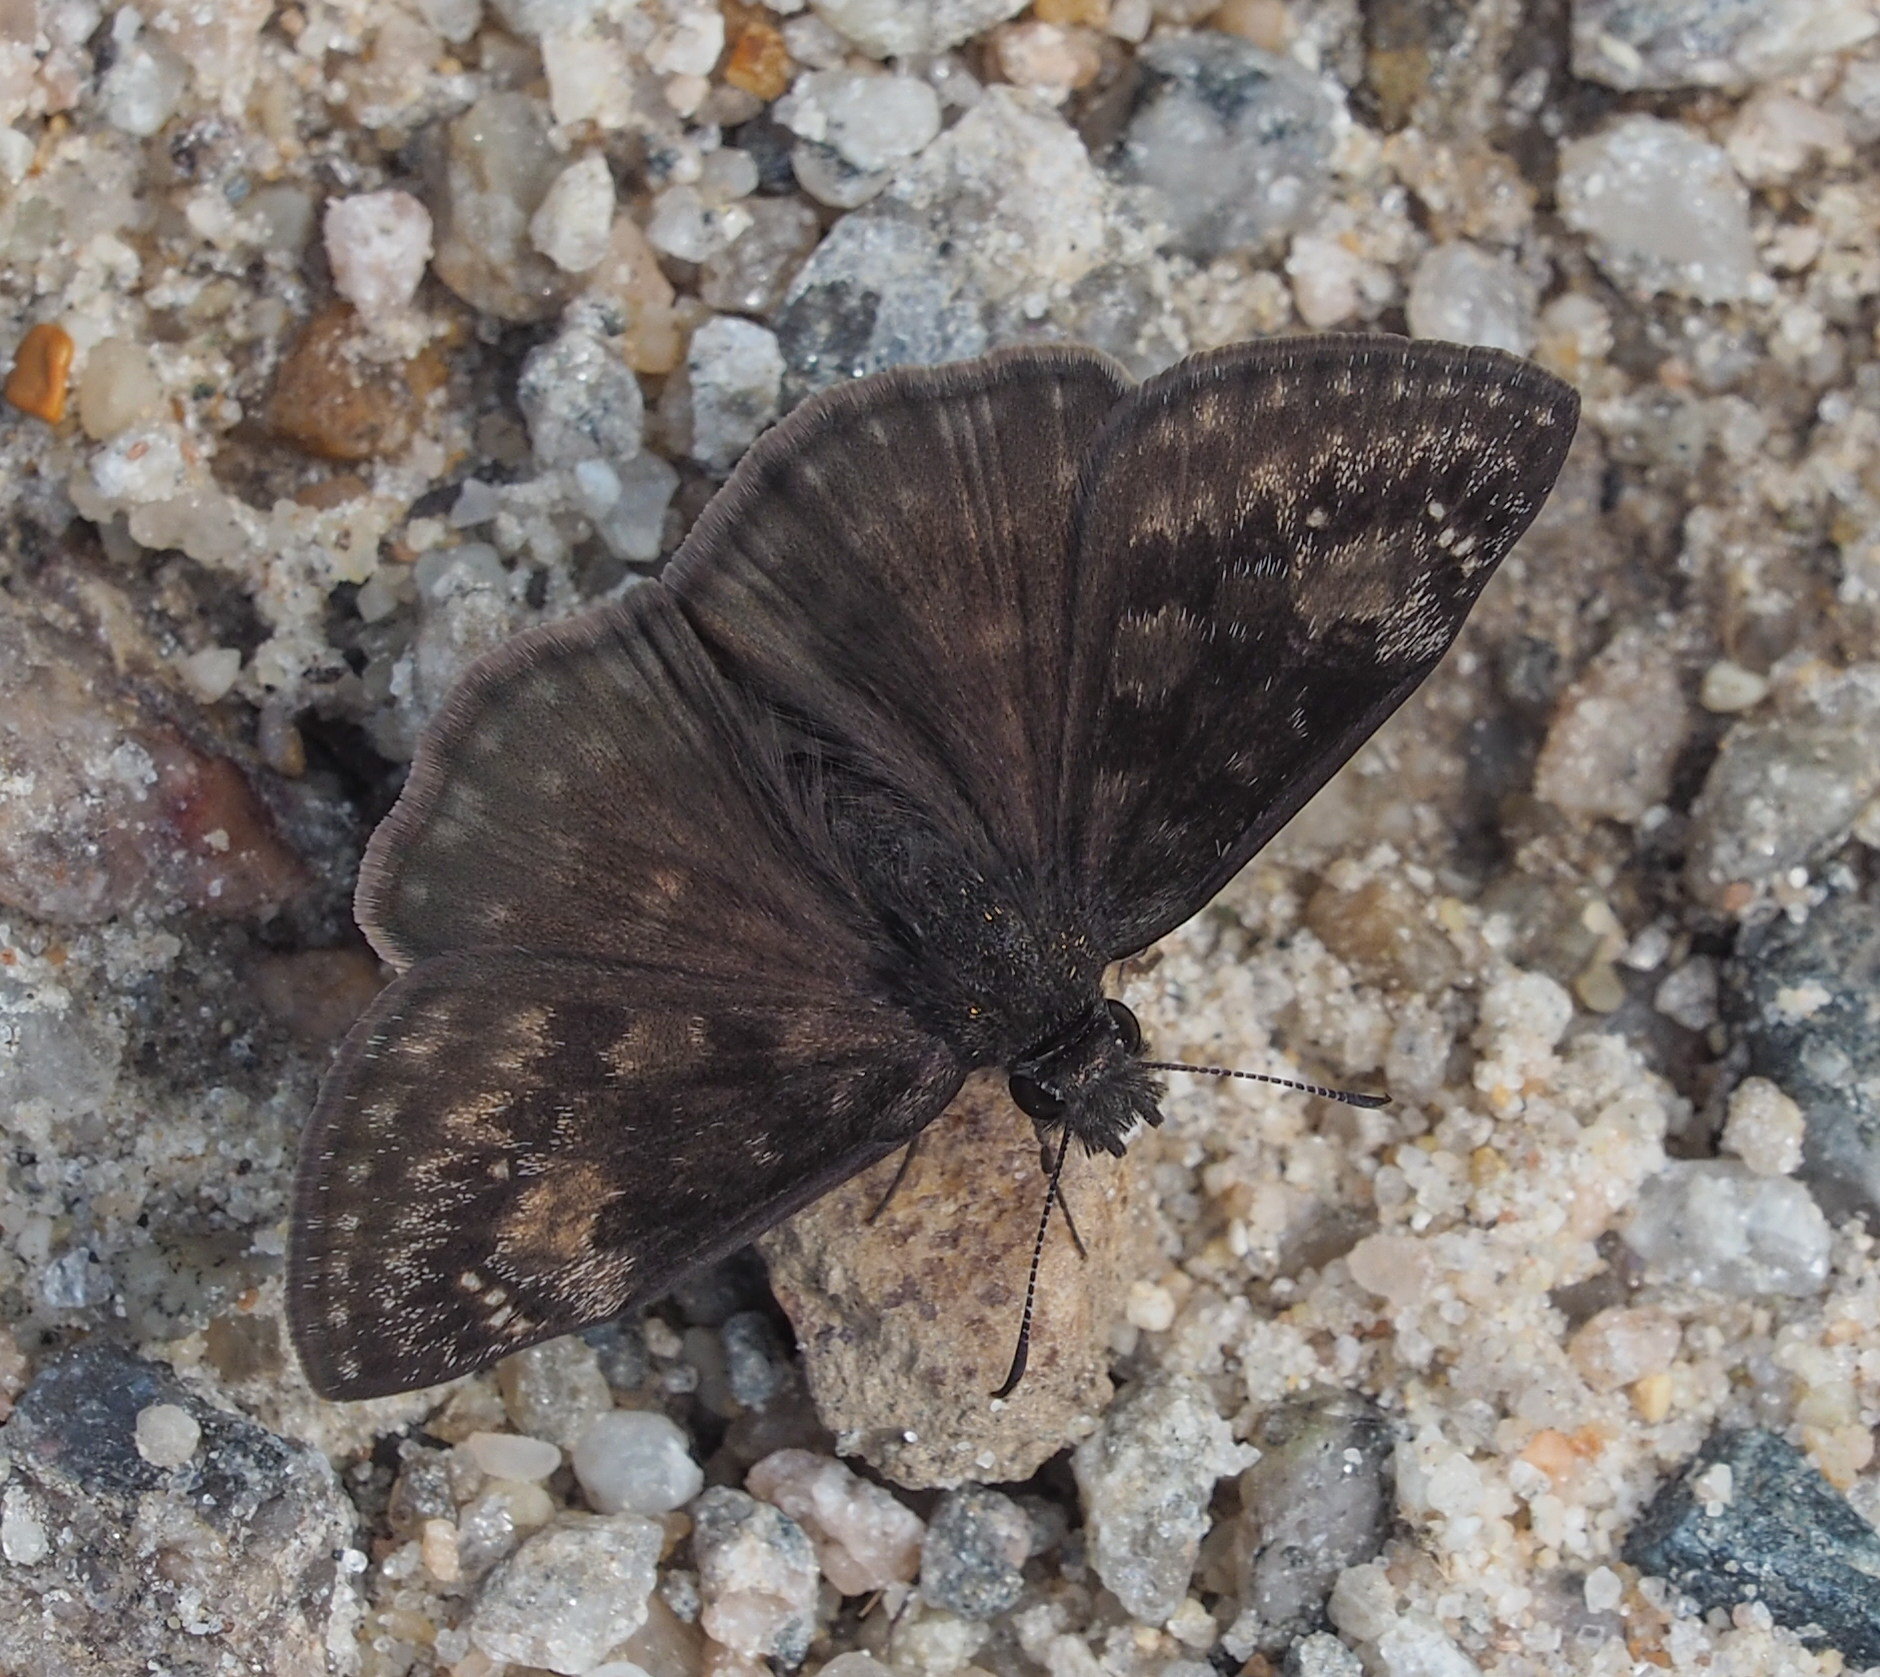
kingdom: Animalia
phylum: Arthropoda
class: Insecta
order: Lepidoptera
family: Hesperiidae
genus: Erynnis
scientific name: Erynnis baptisiae
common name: Wild indigo duskywing
